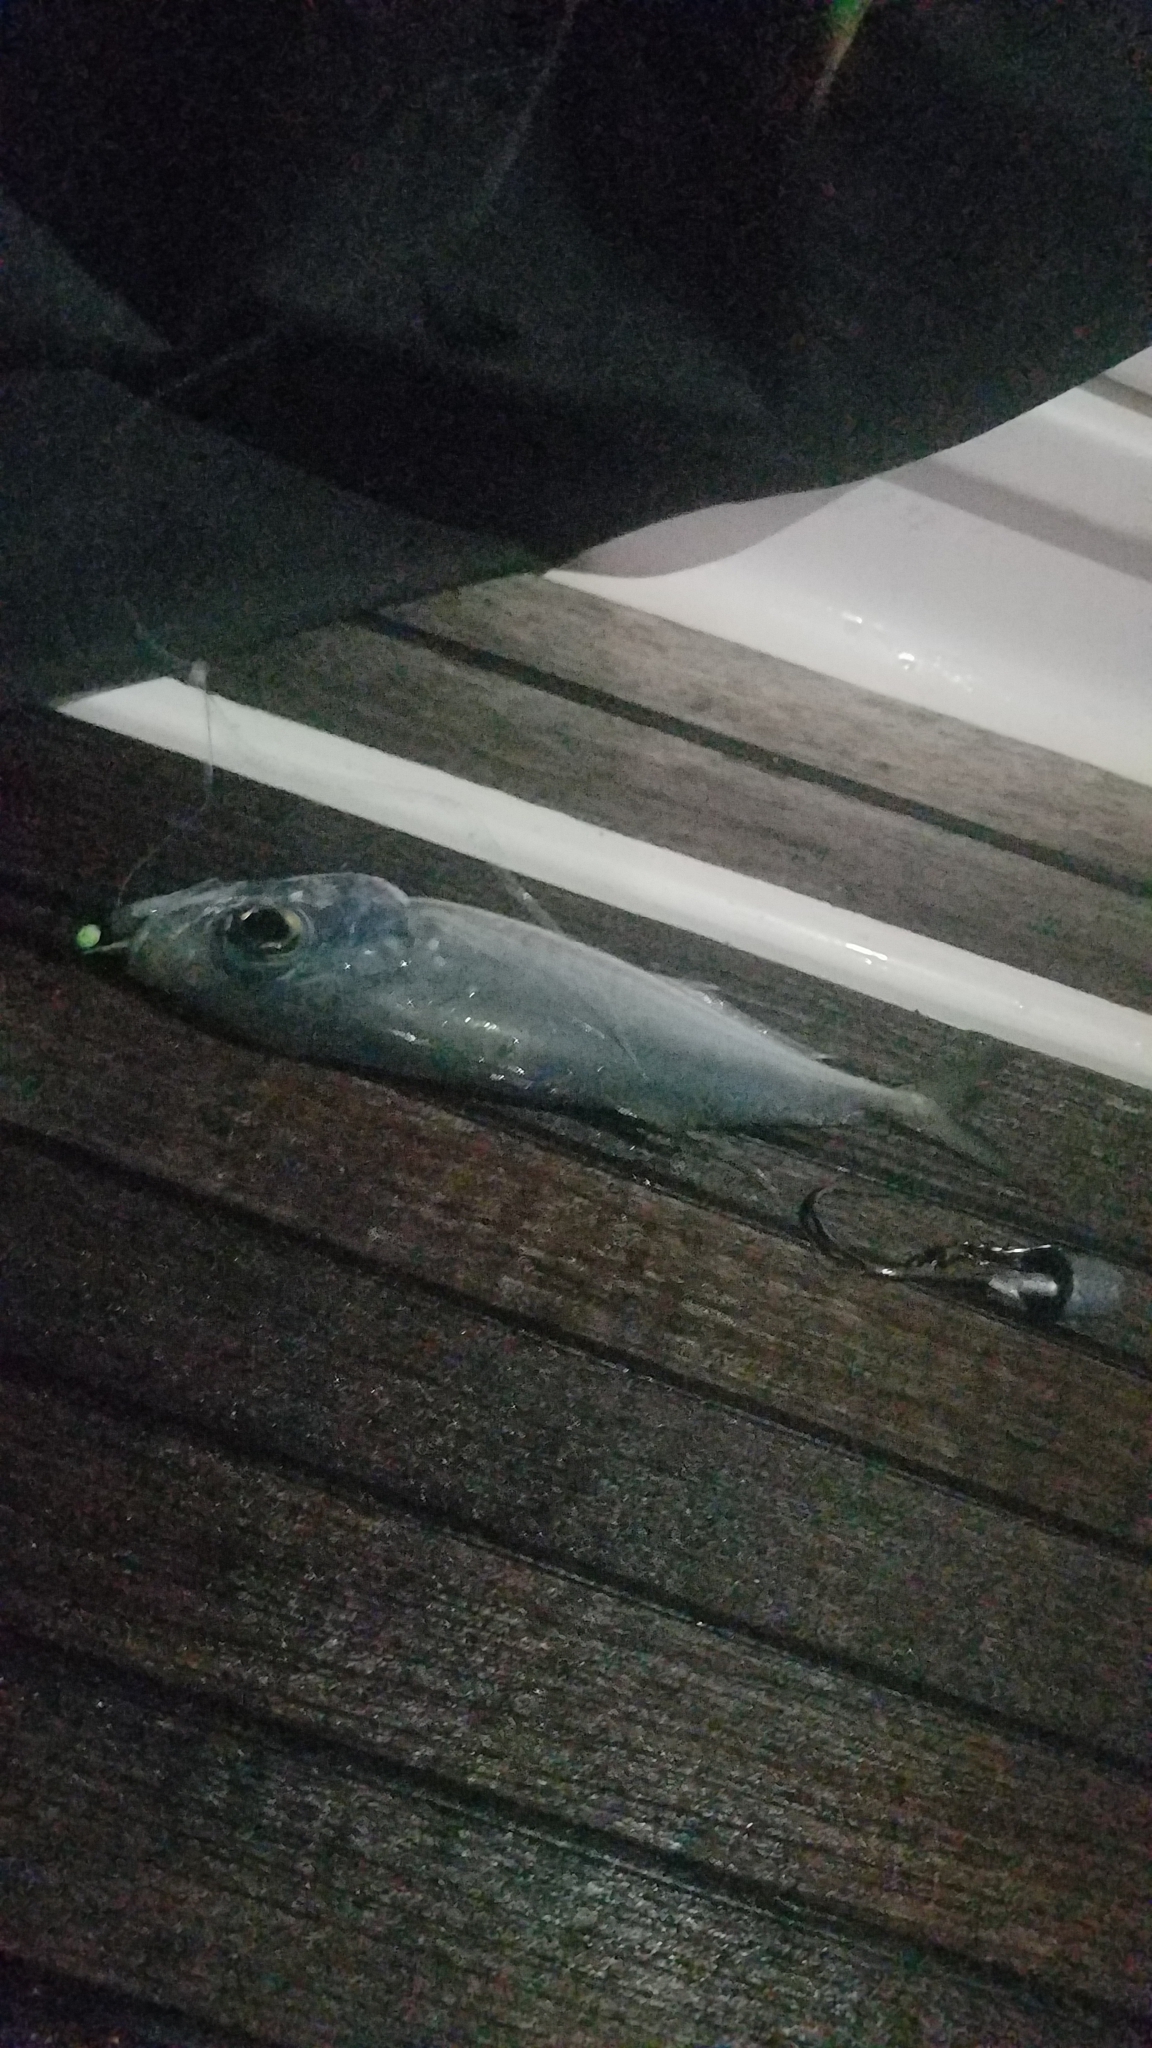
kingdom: Animalia
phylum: Chordata
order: Perciformes
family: Carangidae
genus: Selar
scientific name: Selar crumenophthalmus
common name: Bigeye scad
